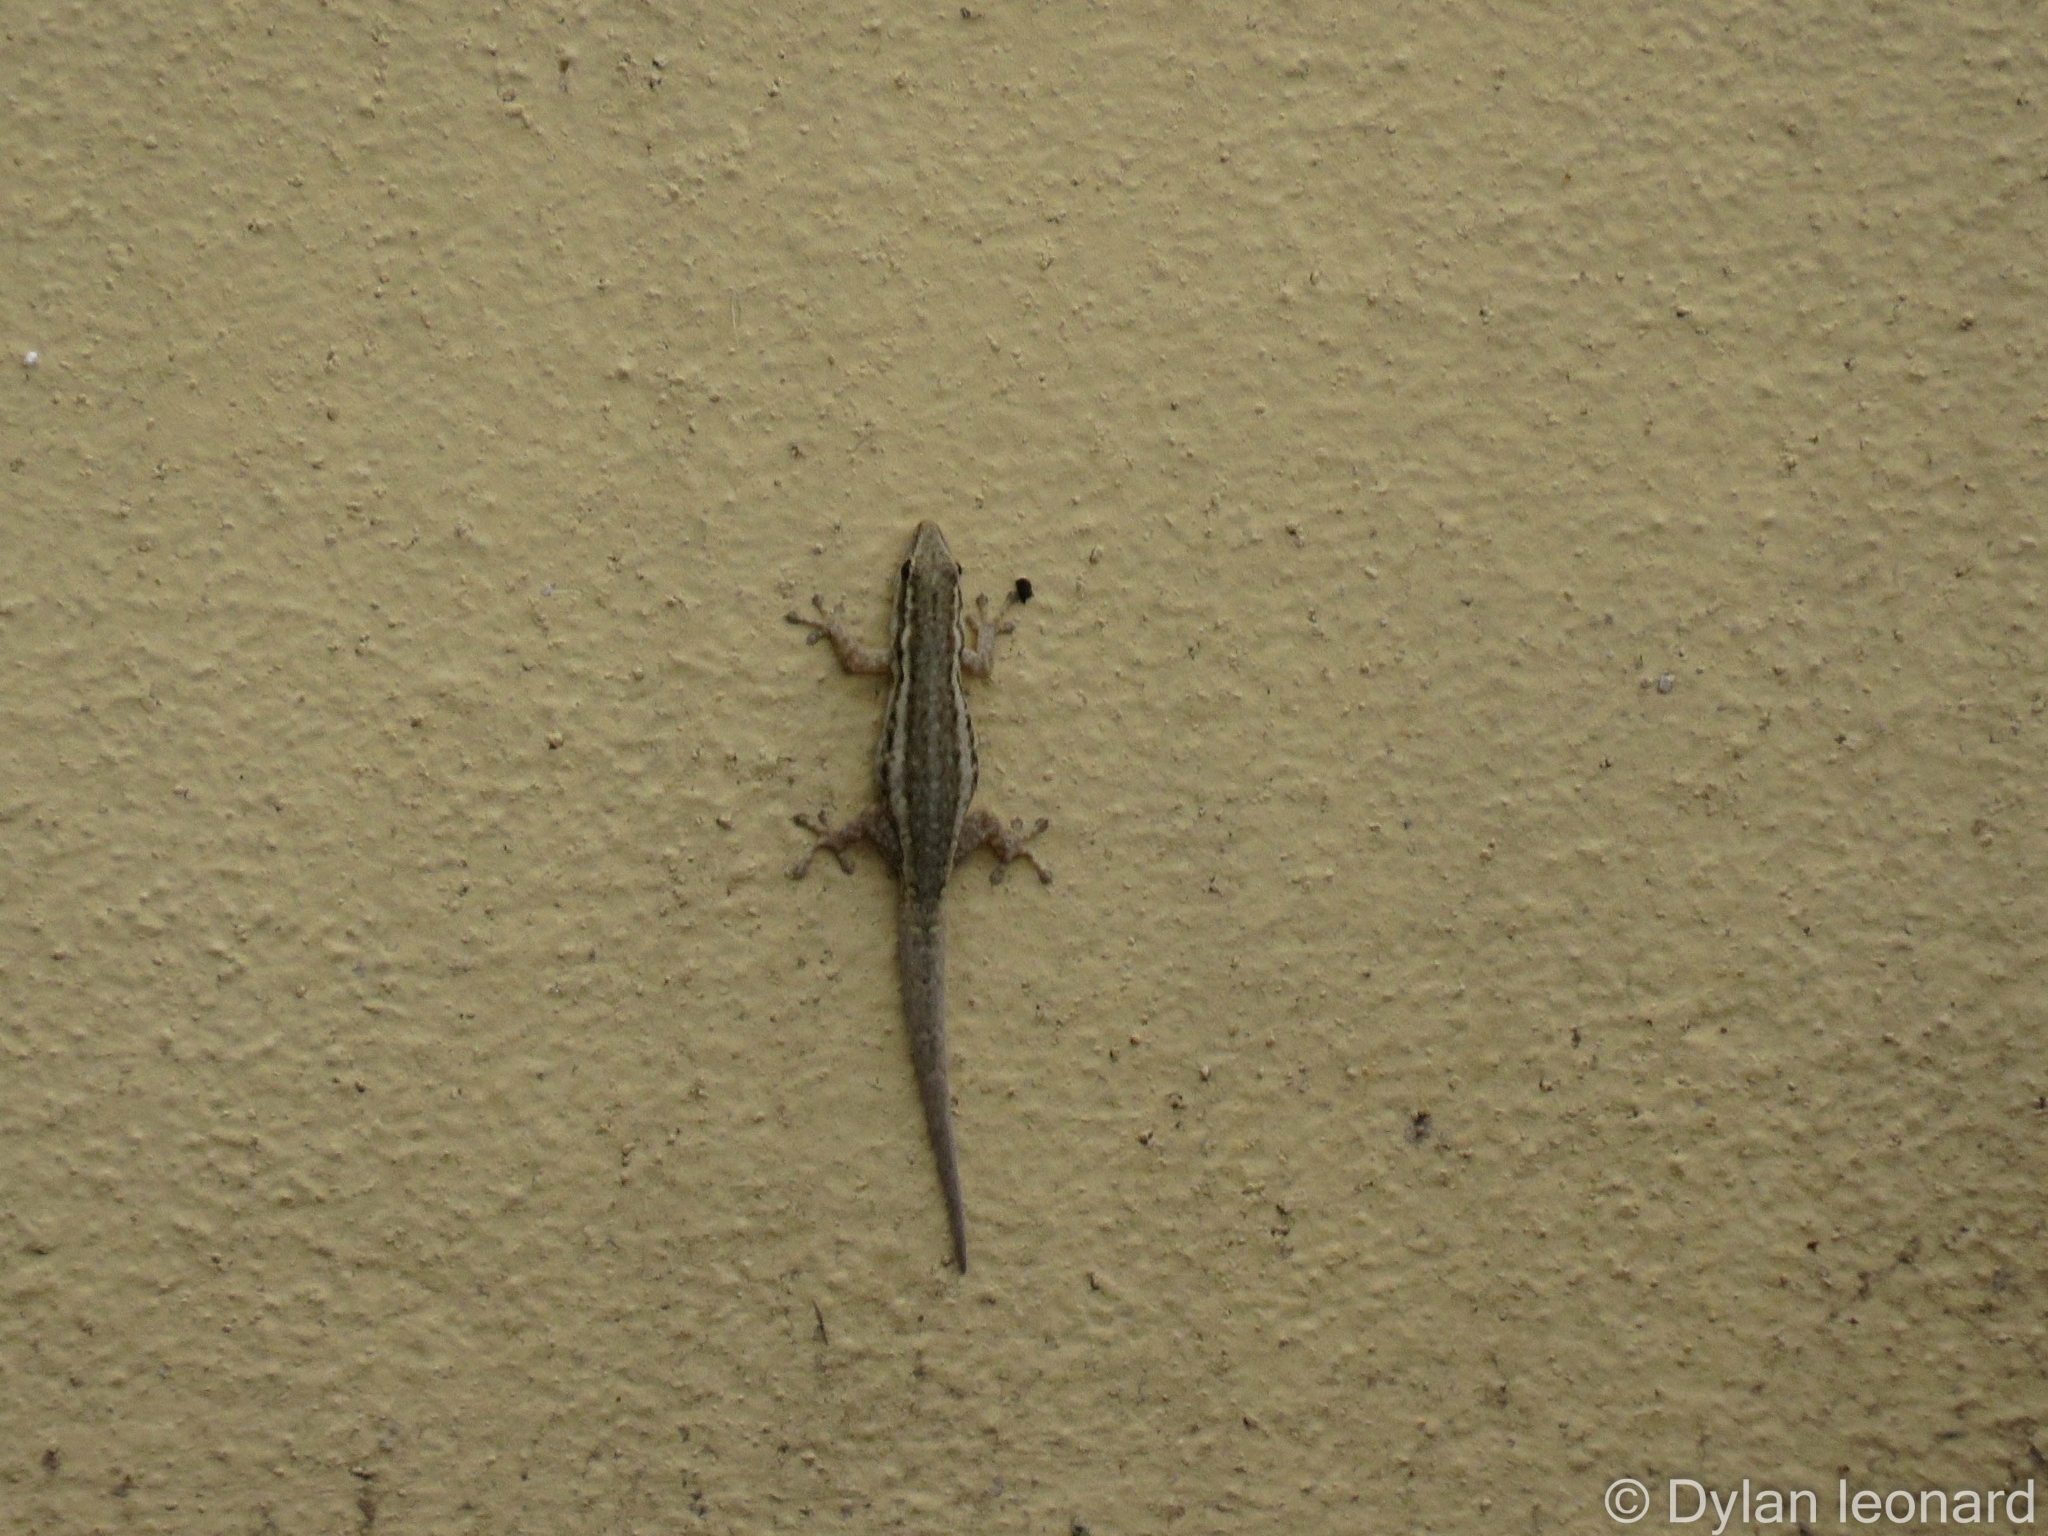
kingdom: Animalia
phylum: Chordata
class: Squamata
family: Gekkonidae
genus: Lygodactylus
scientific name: Lygodactylus capensis
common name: Cape dwarf gecko
